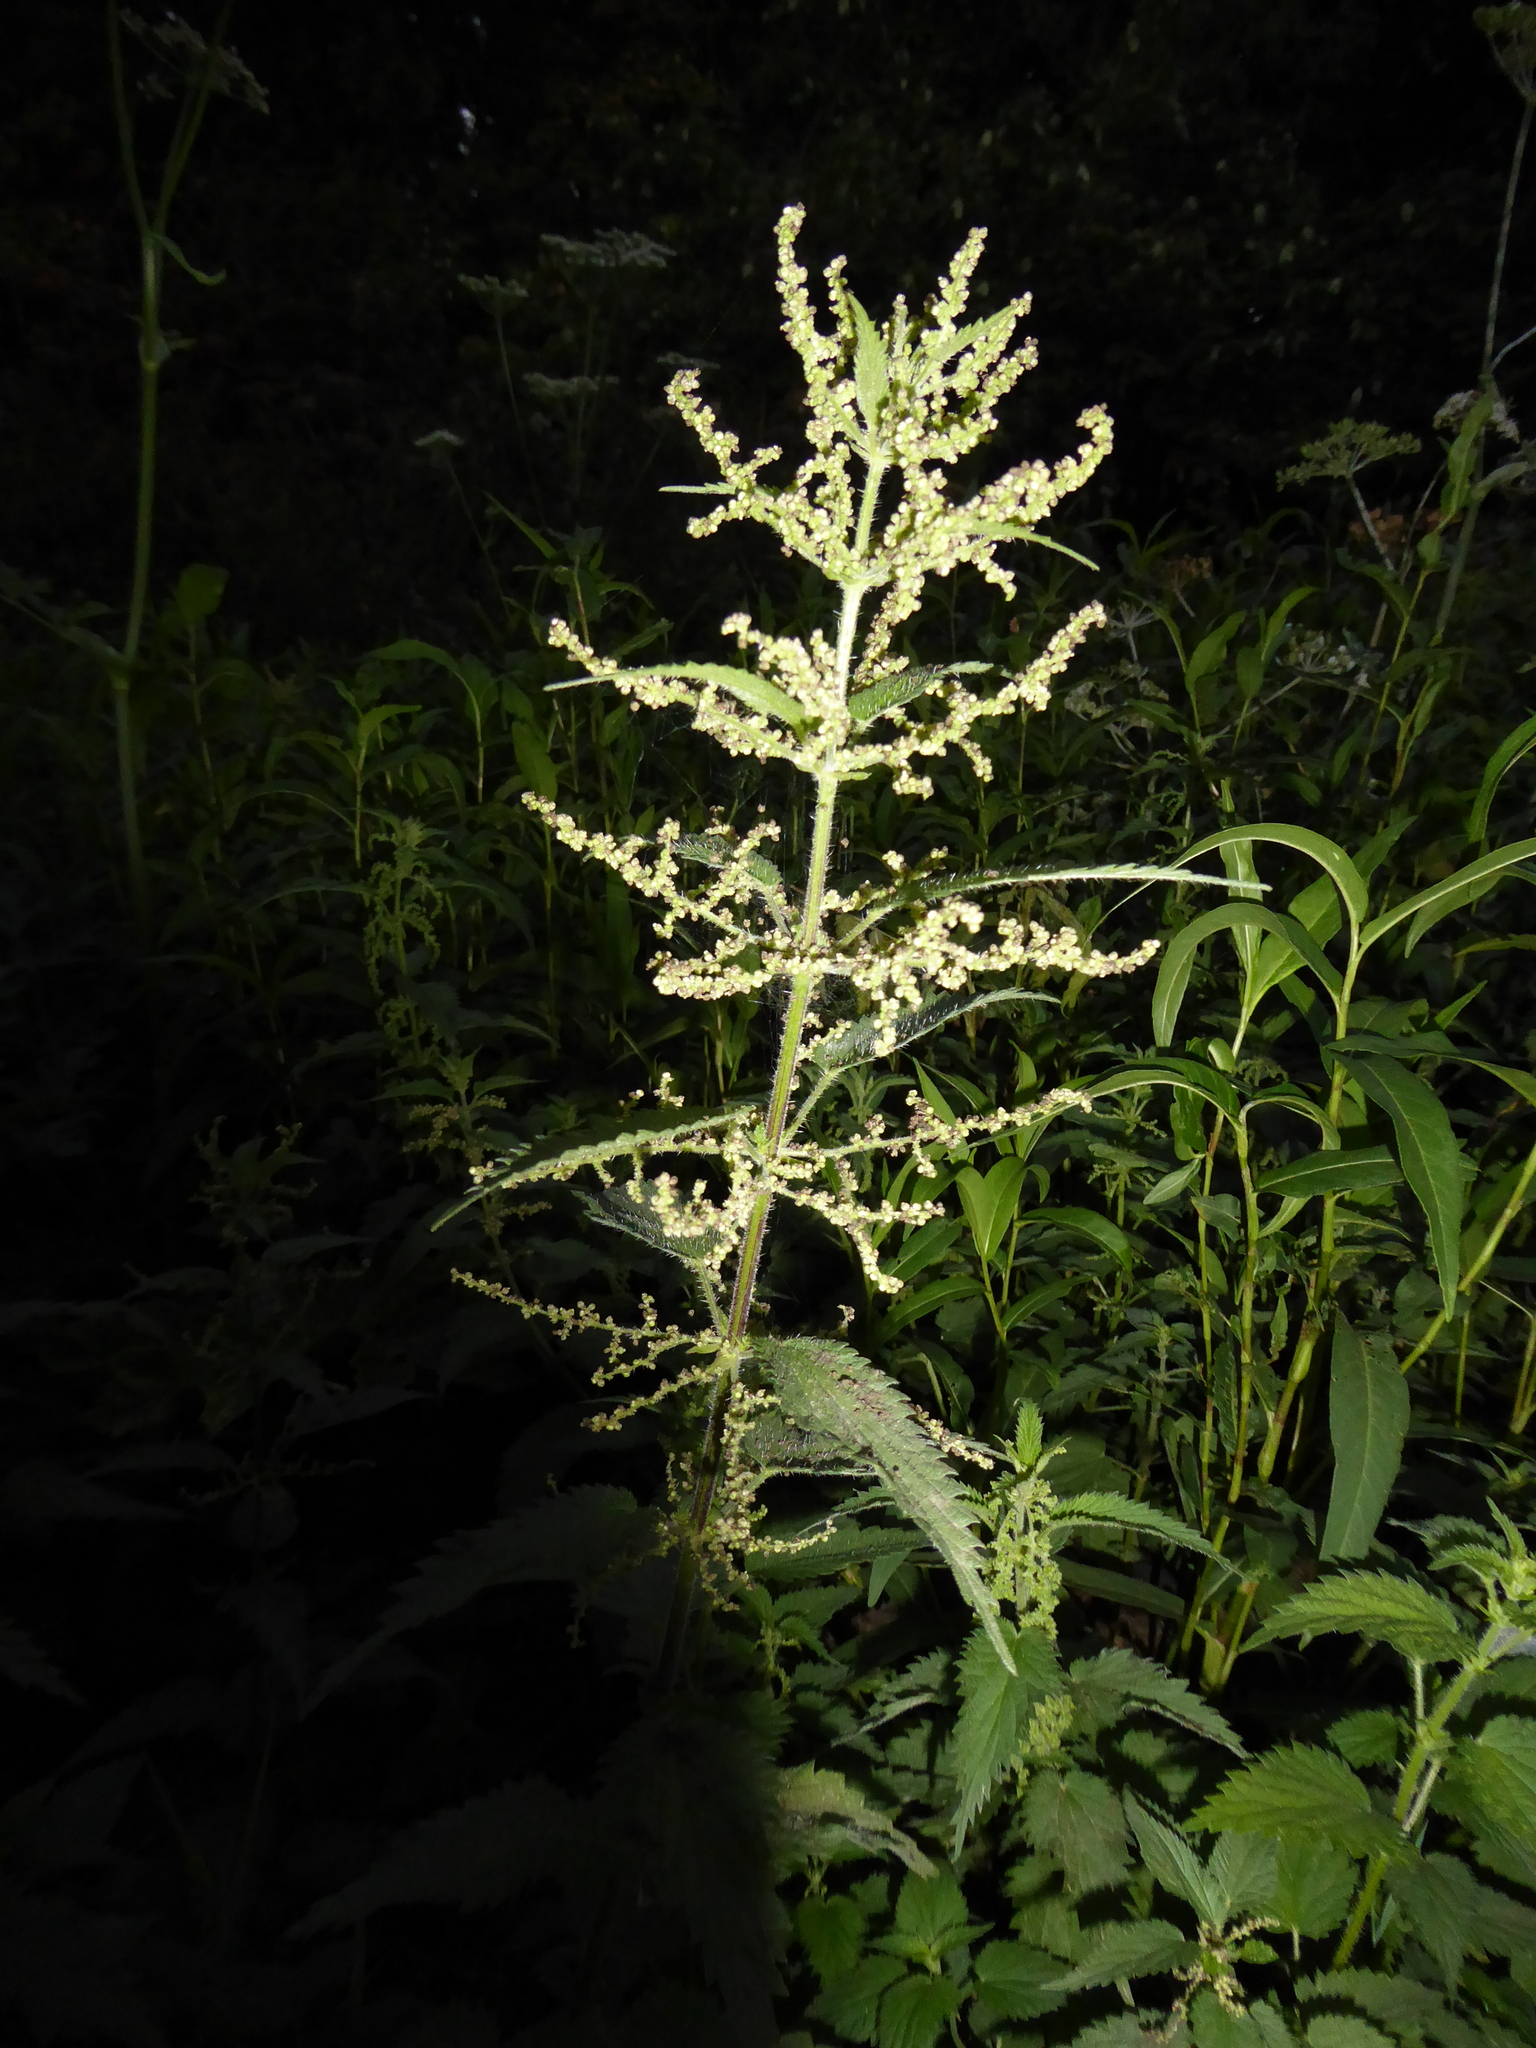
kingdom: Plantae
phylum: Tracheophyta
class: Magnoliopsida
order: Rosales
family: Urticaceae
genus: Urtica
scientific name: Urtica dioica
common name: Common nettle
